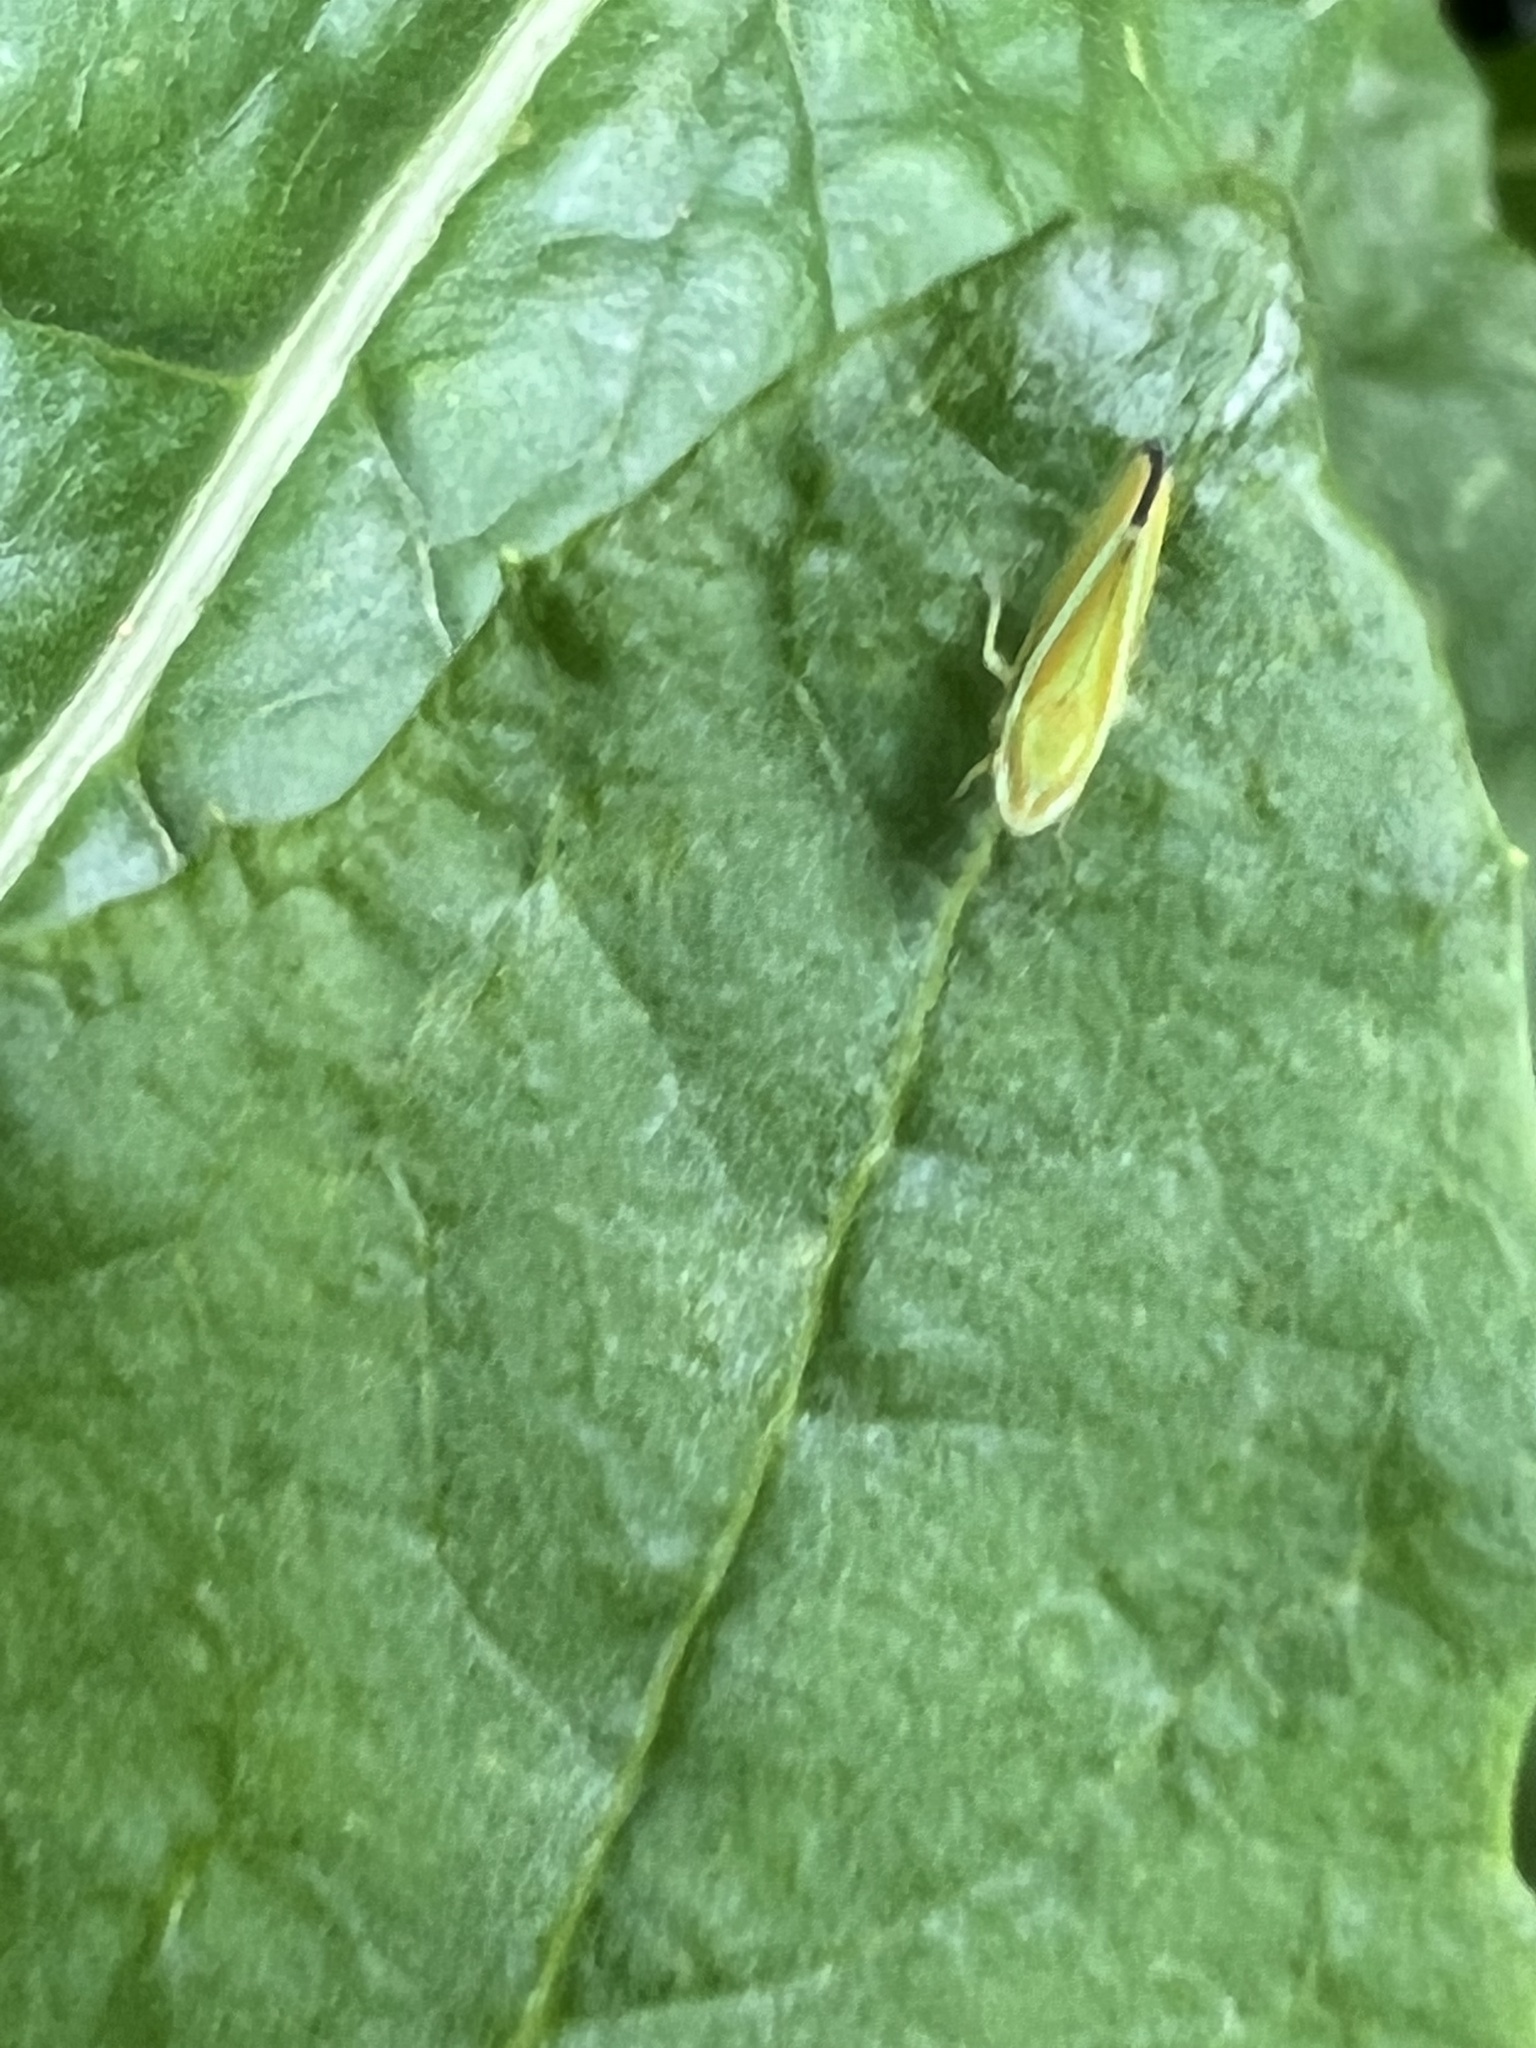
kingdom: Animalia
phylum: Arthropoda
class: Insecta
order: Hemiptera
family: Cicadellidae
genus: Graphocephala
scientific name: Graphocephala versuta
